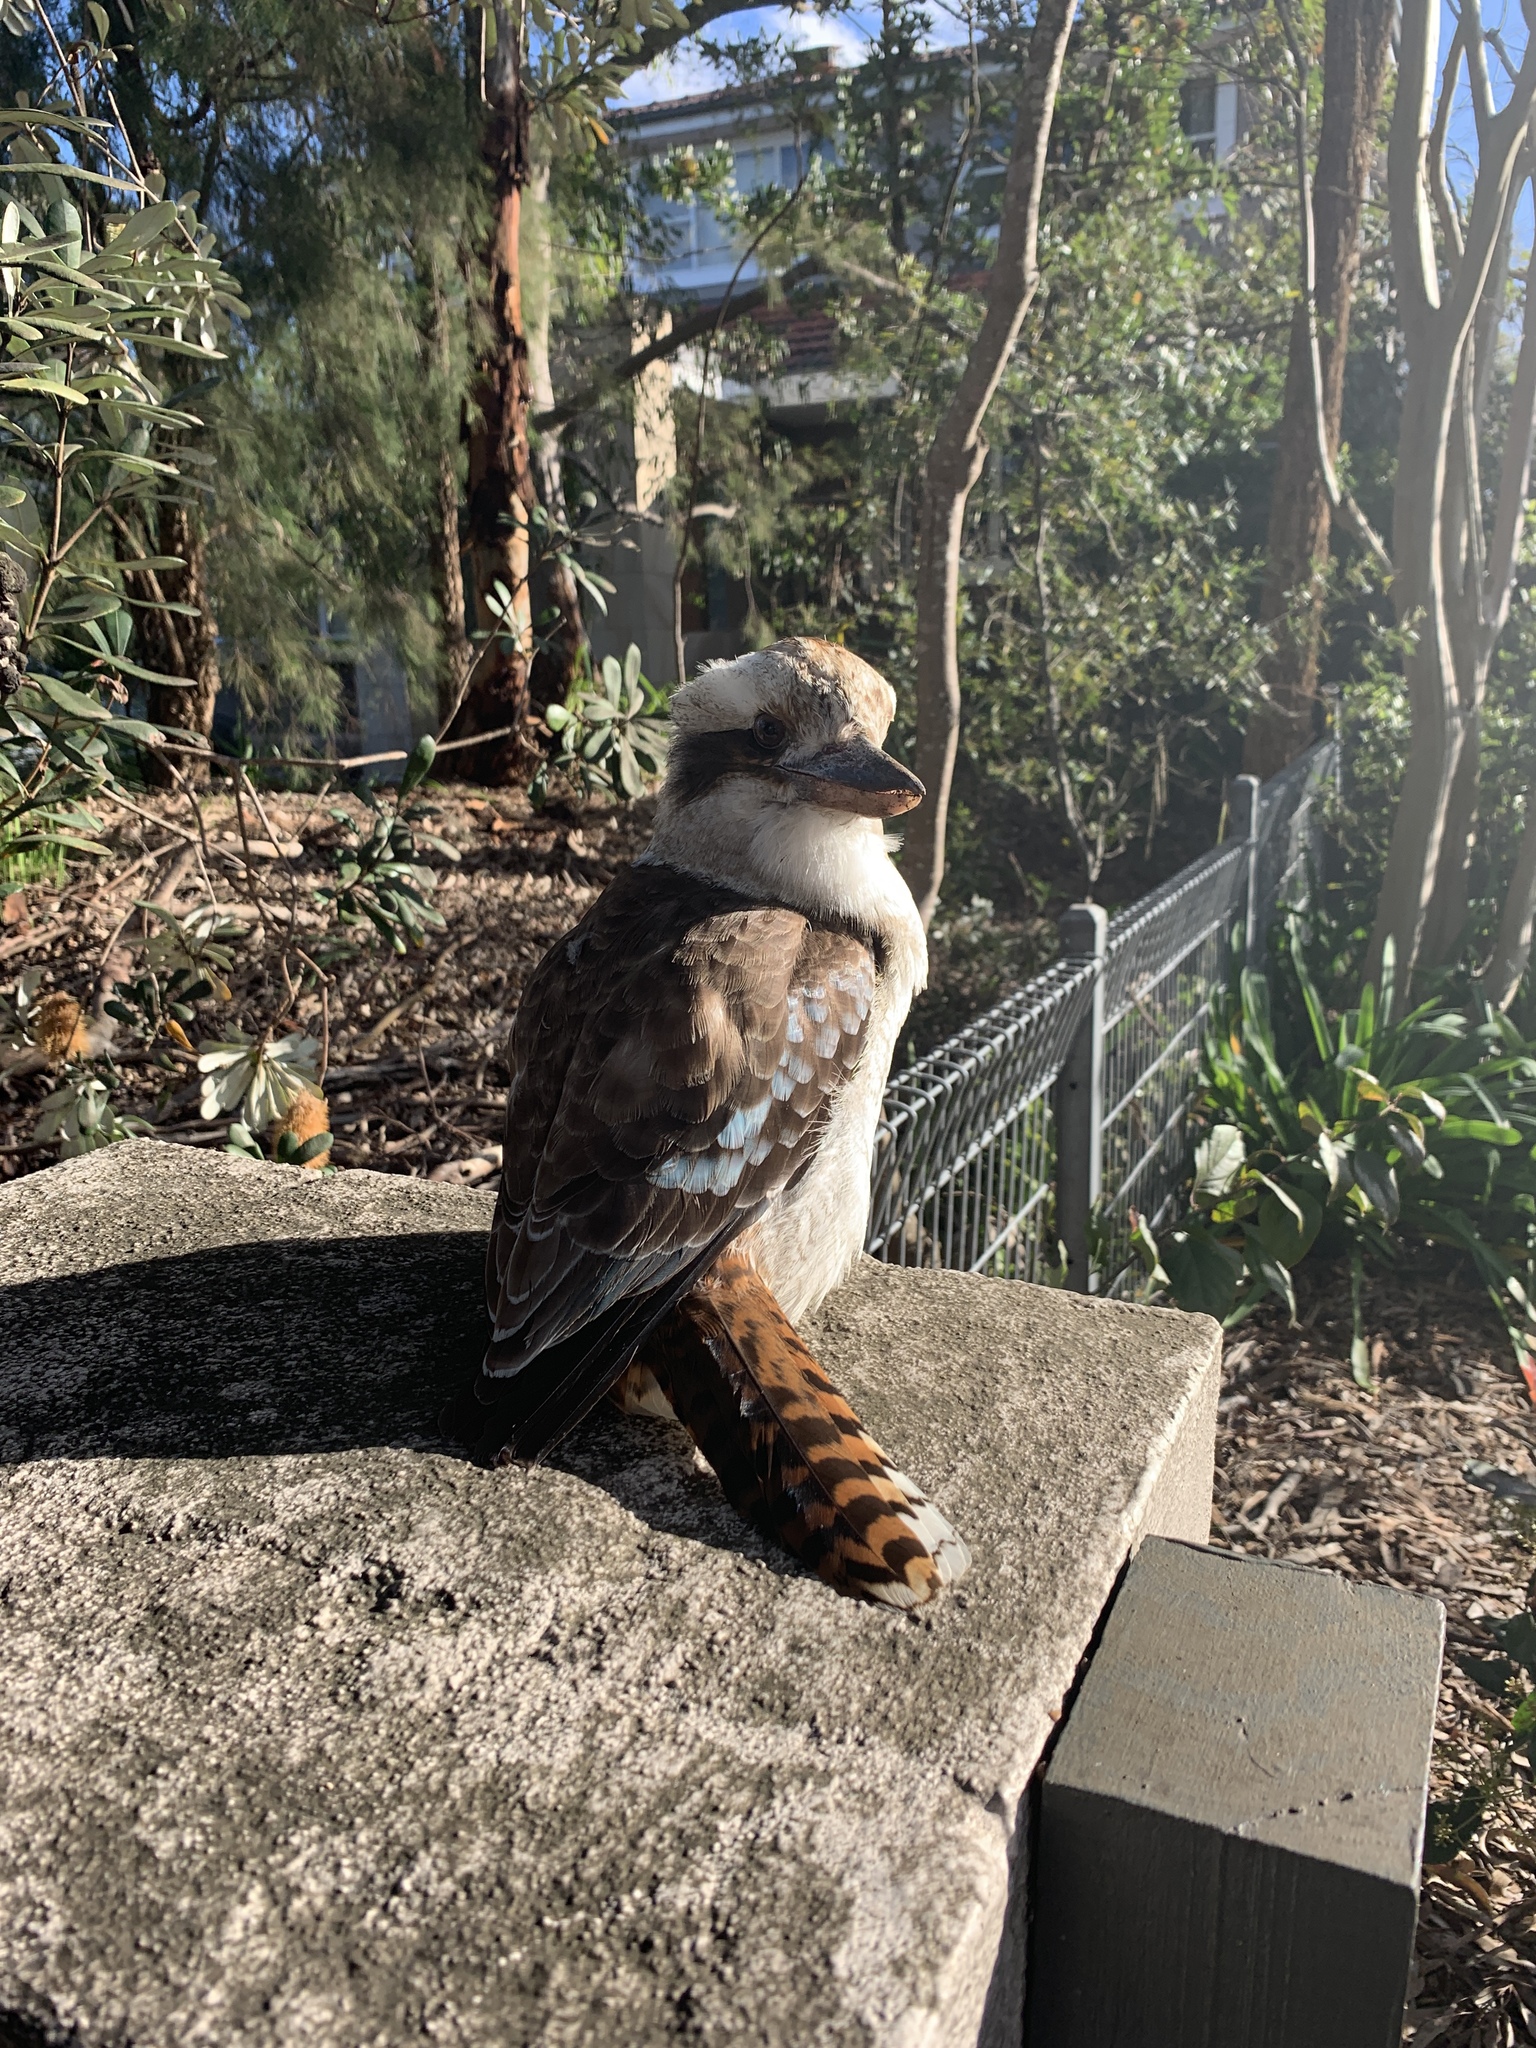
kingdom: Animalia
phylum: Chordata
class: Aves
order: Coraciiformes
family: Alcedinidae
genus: Dacelo
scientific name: Dacelo novaeguineae
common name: Laughing kookaburra
